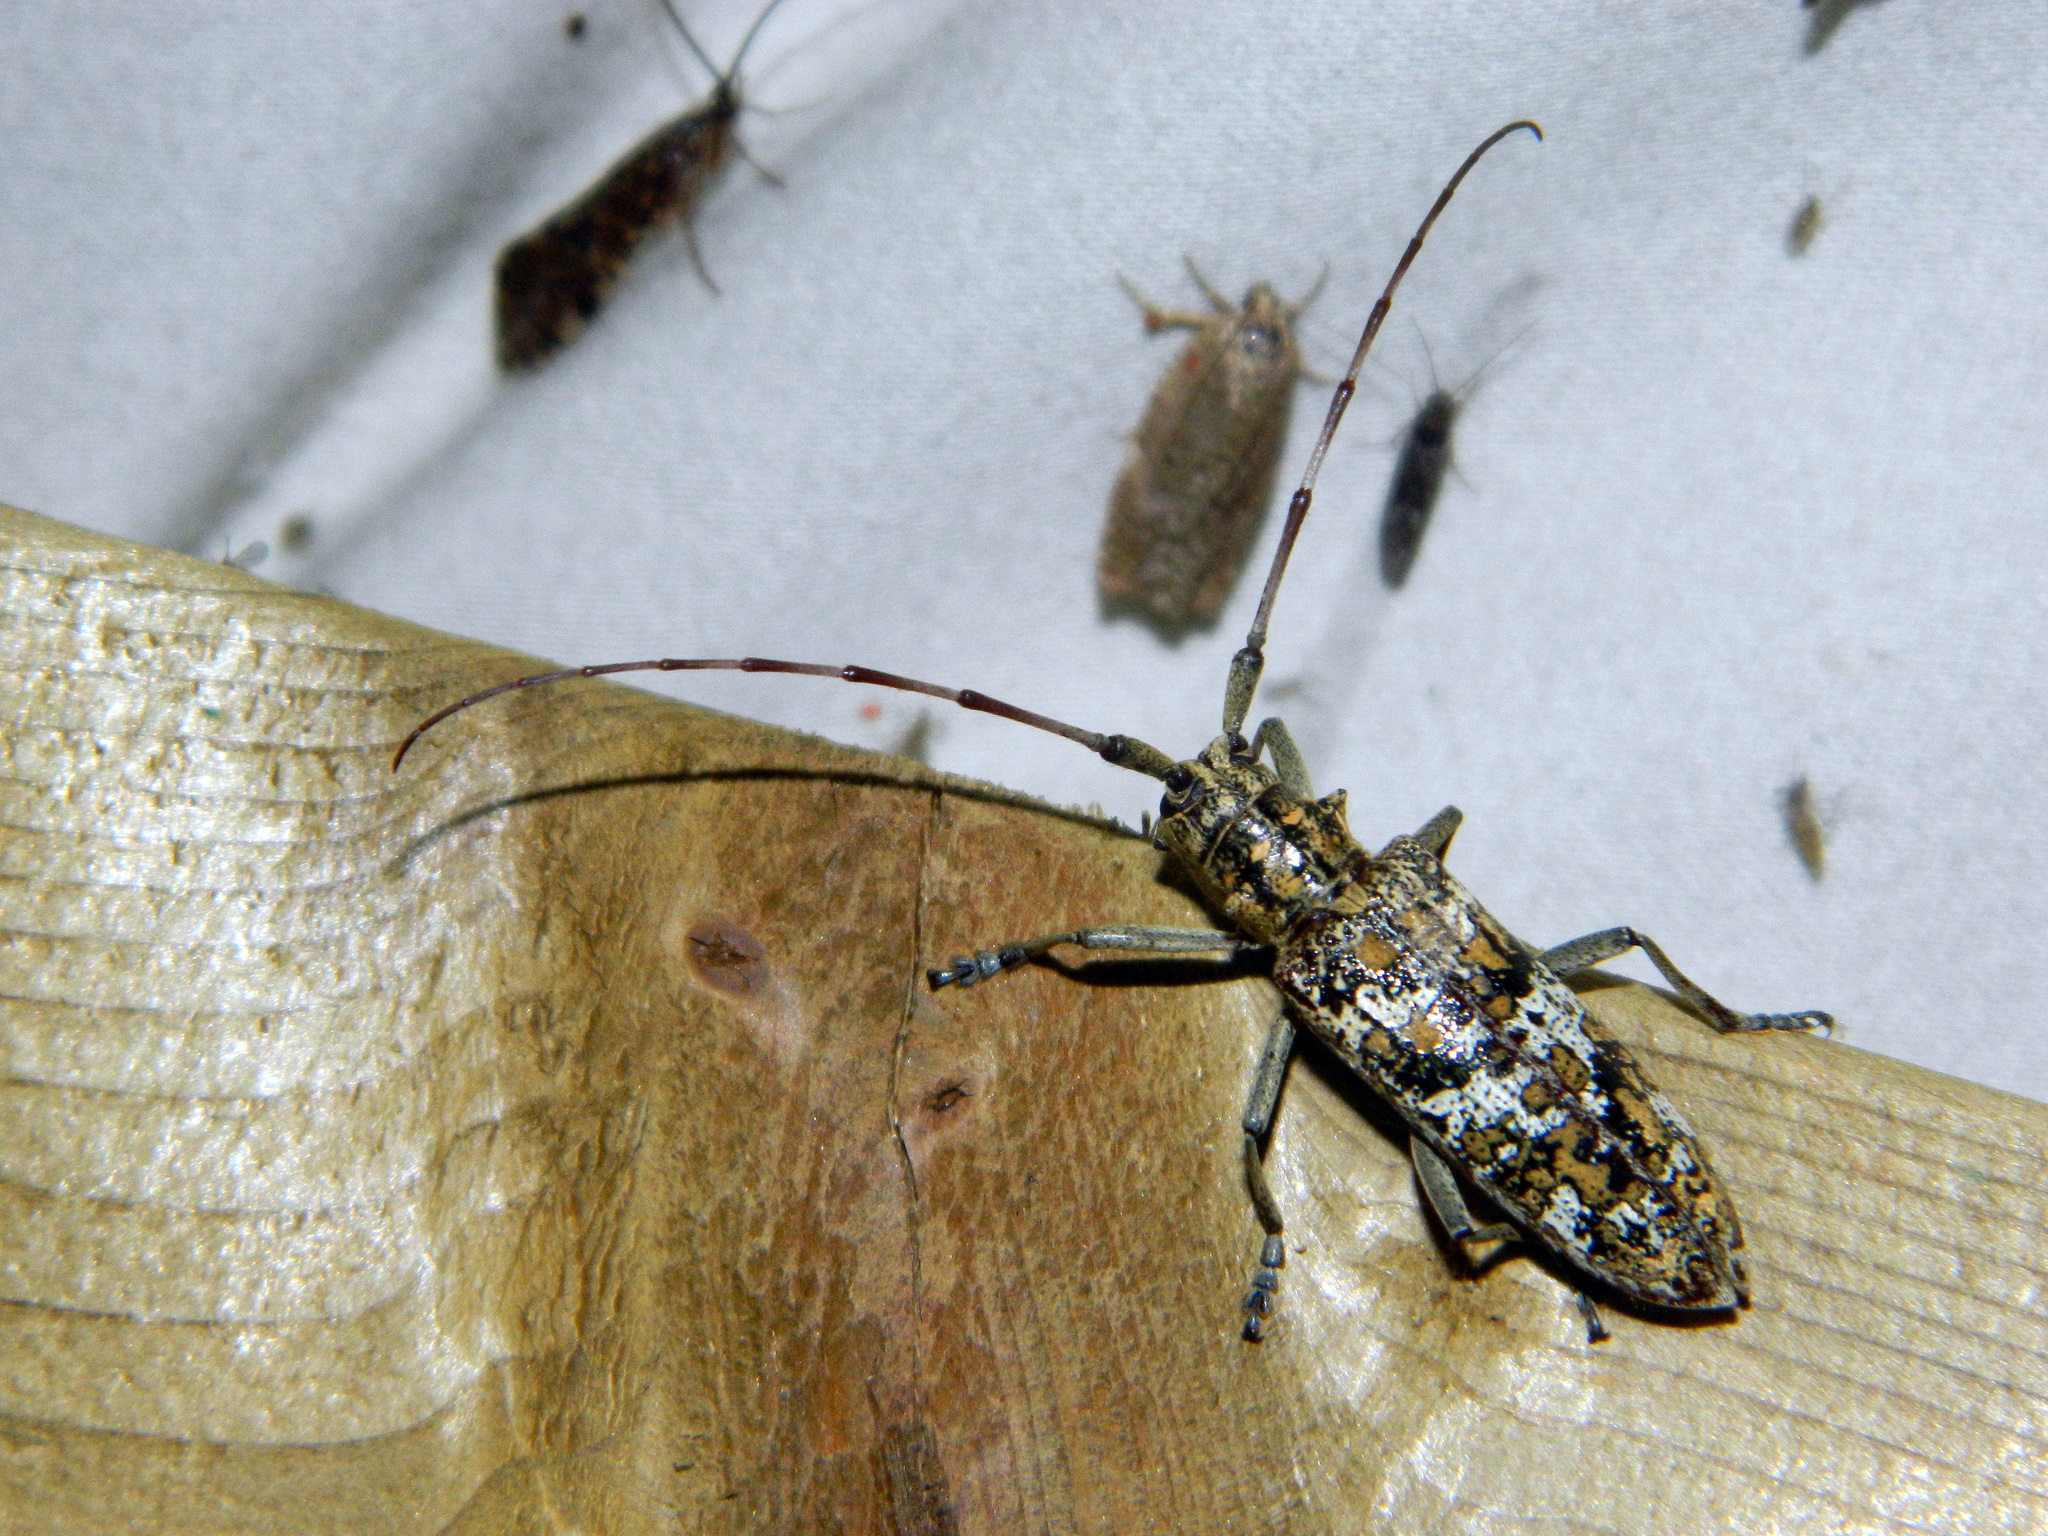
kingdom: Animalia
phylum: Arthropoda
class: Insecta
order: Coleoptera
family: Cerambycidae
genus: Monochamus
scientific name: Monochamus marmorator
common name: Balsam fir sawyer
